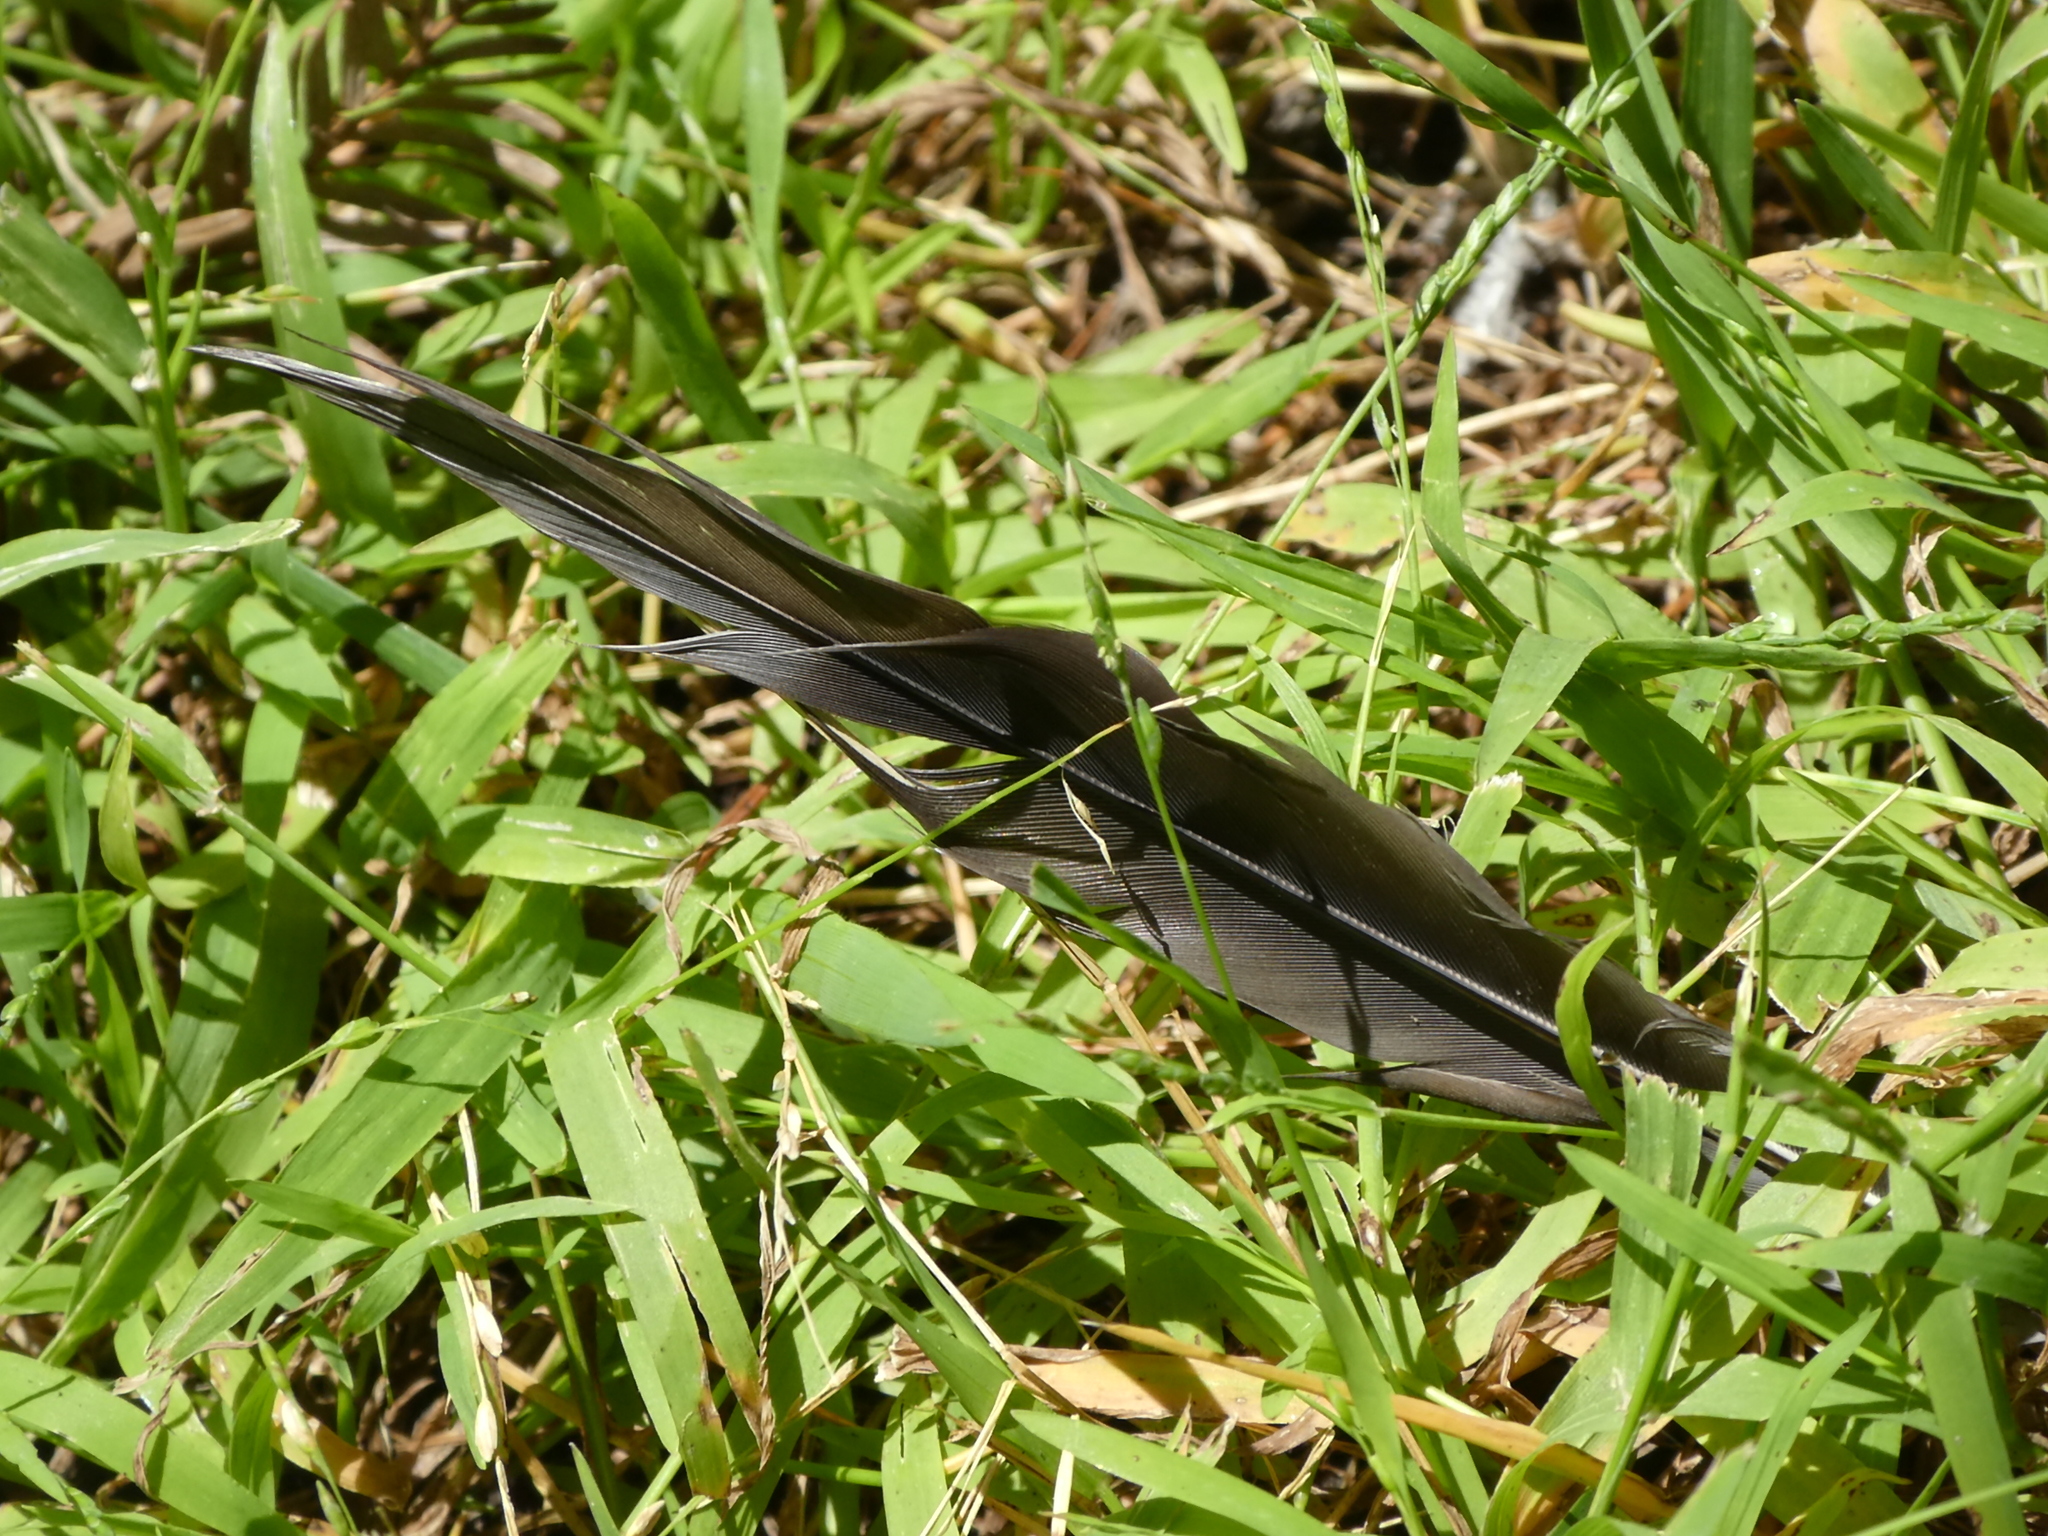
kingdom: Animalia
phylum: Chordata
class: Aves
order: Columbiformes
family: Columbidae
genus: Zenaida
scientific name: Zenaida macroura
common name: Mourning dove
